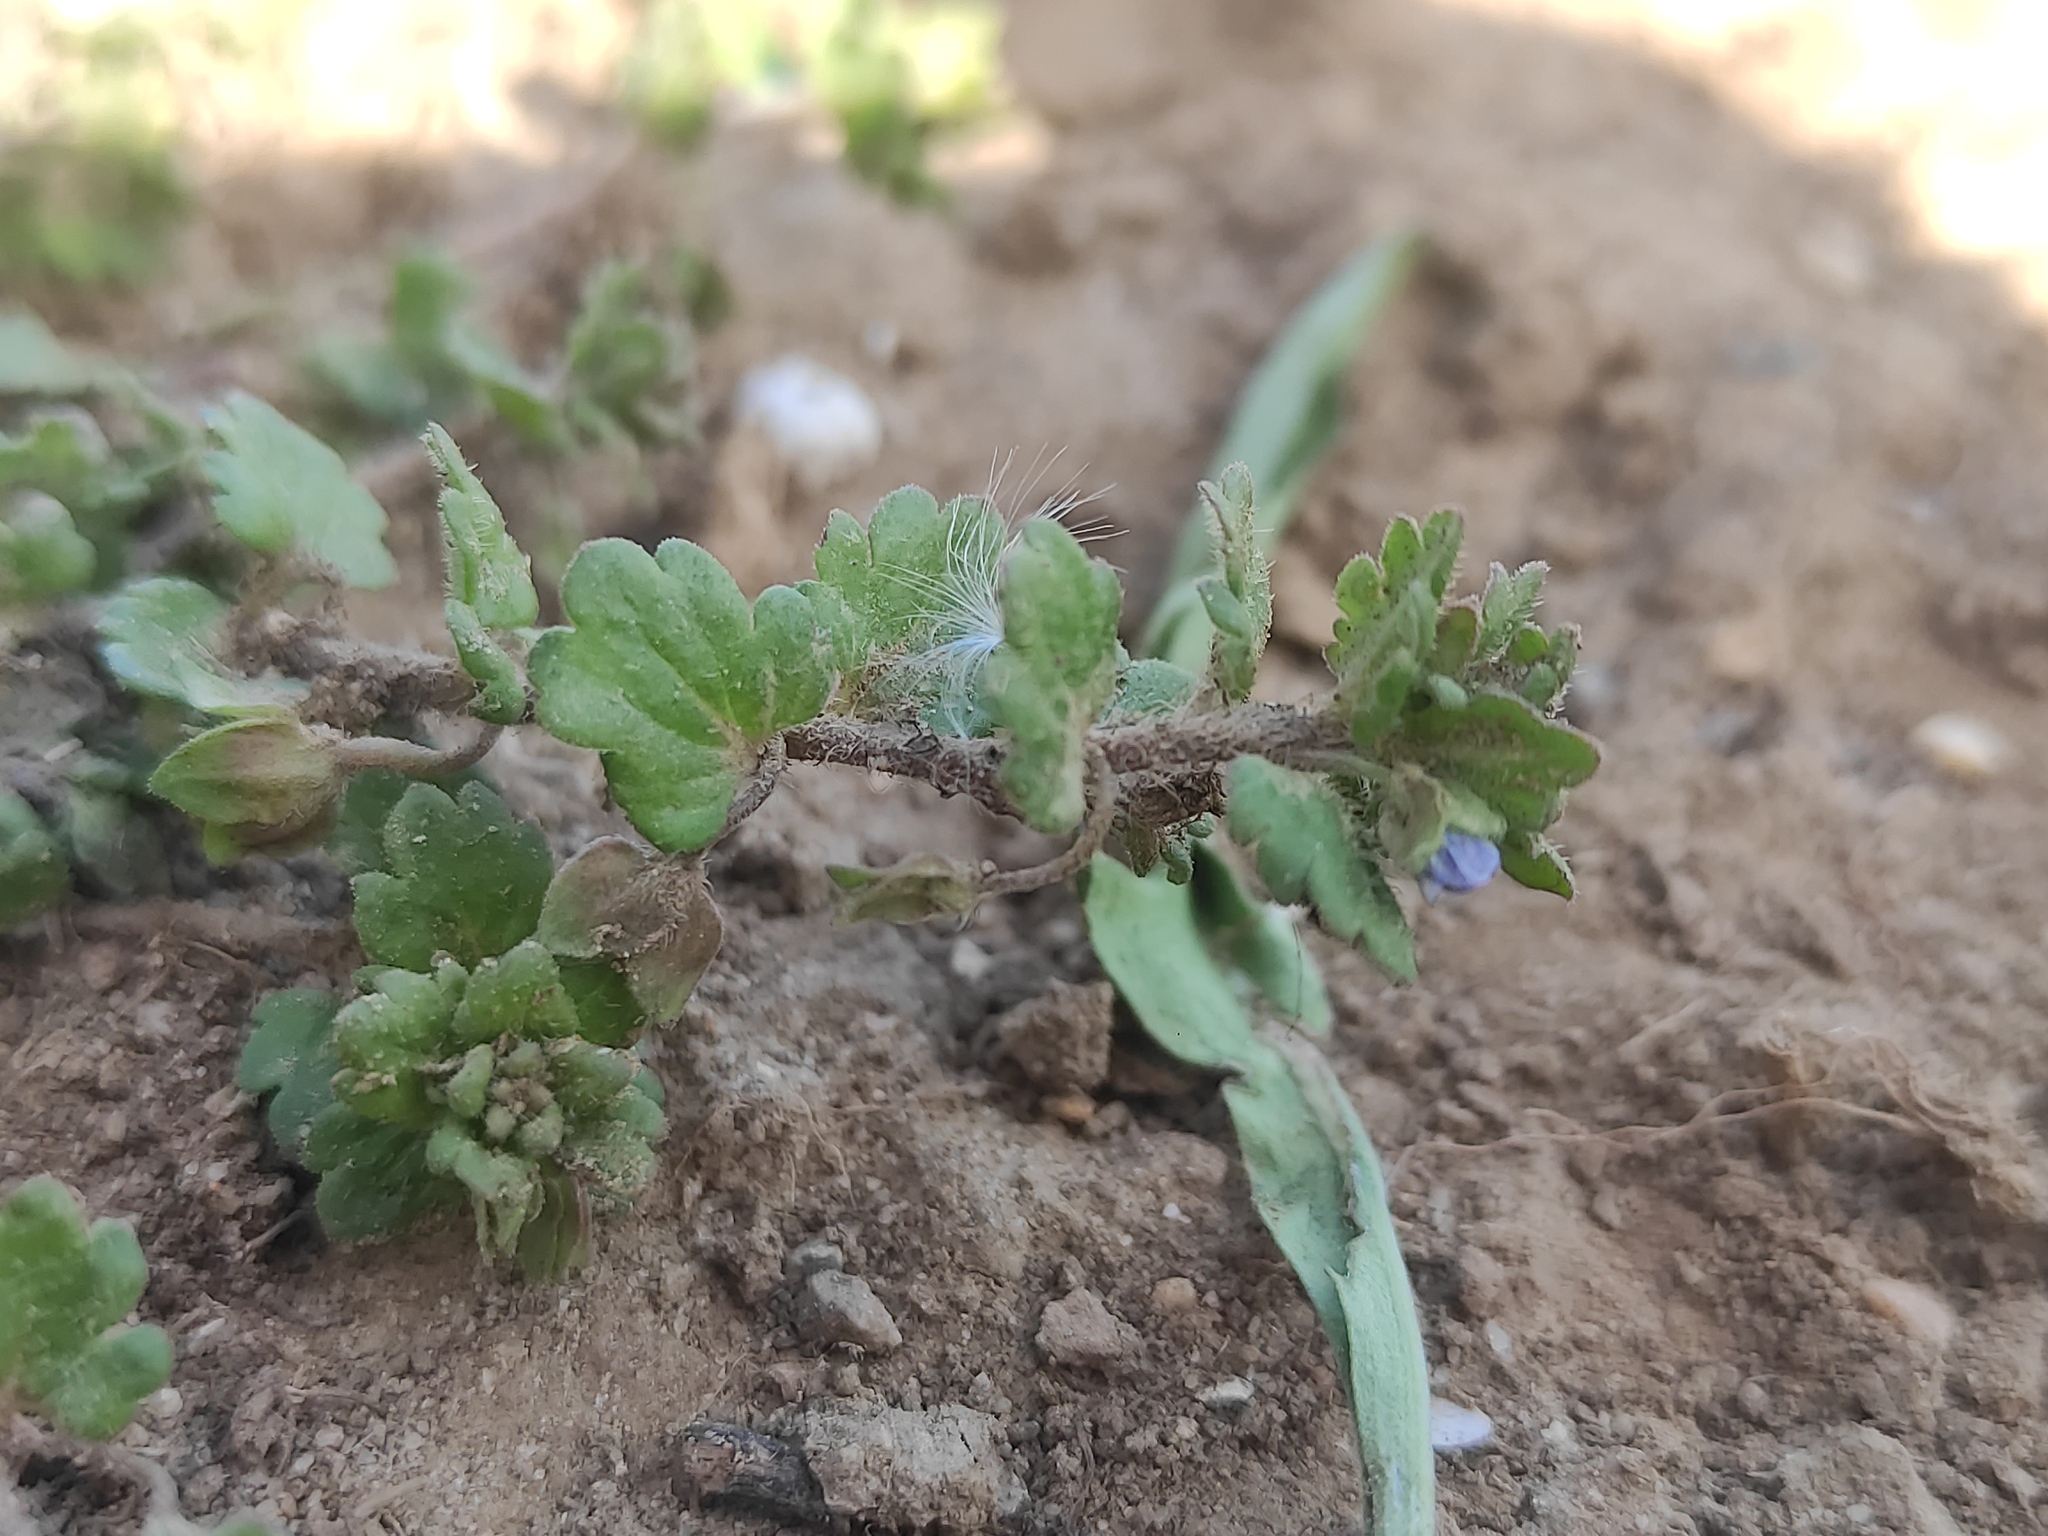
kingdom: Plantae
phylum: Tracheophyta
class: Magnoliopsida
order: Lamiales
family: Plantaginaceae
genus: Veronica
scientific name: Veronica polita
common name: Grey field-speedwell
